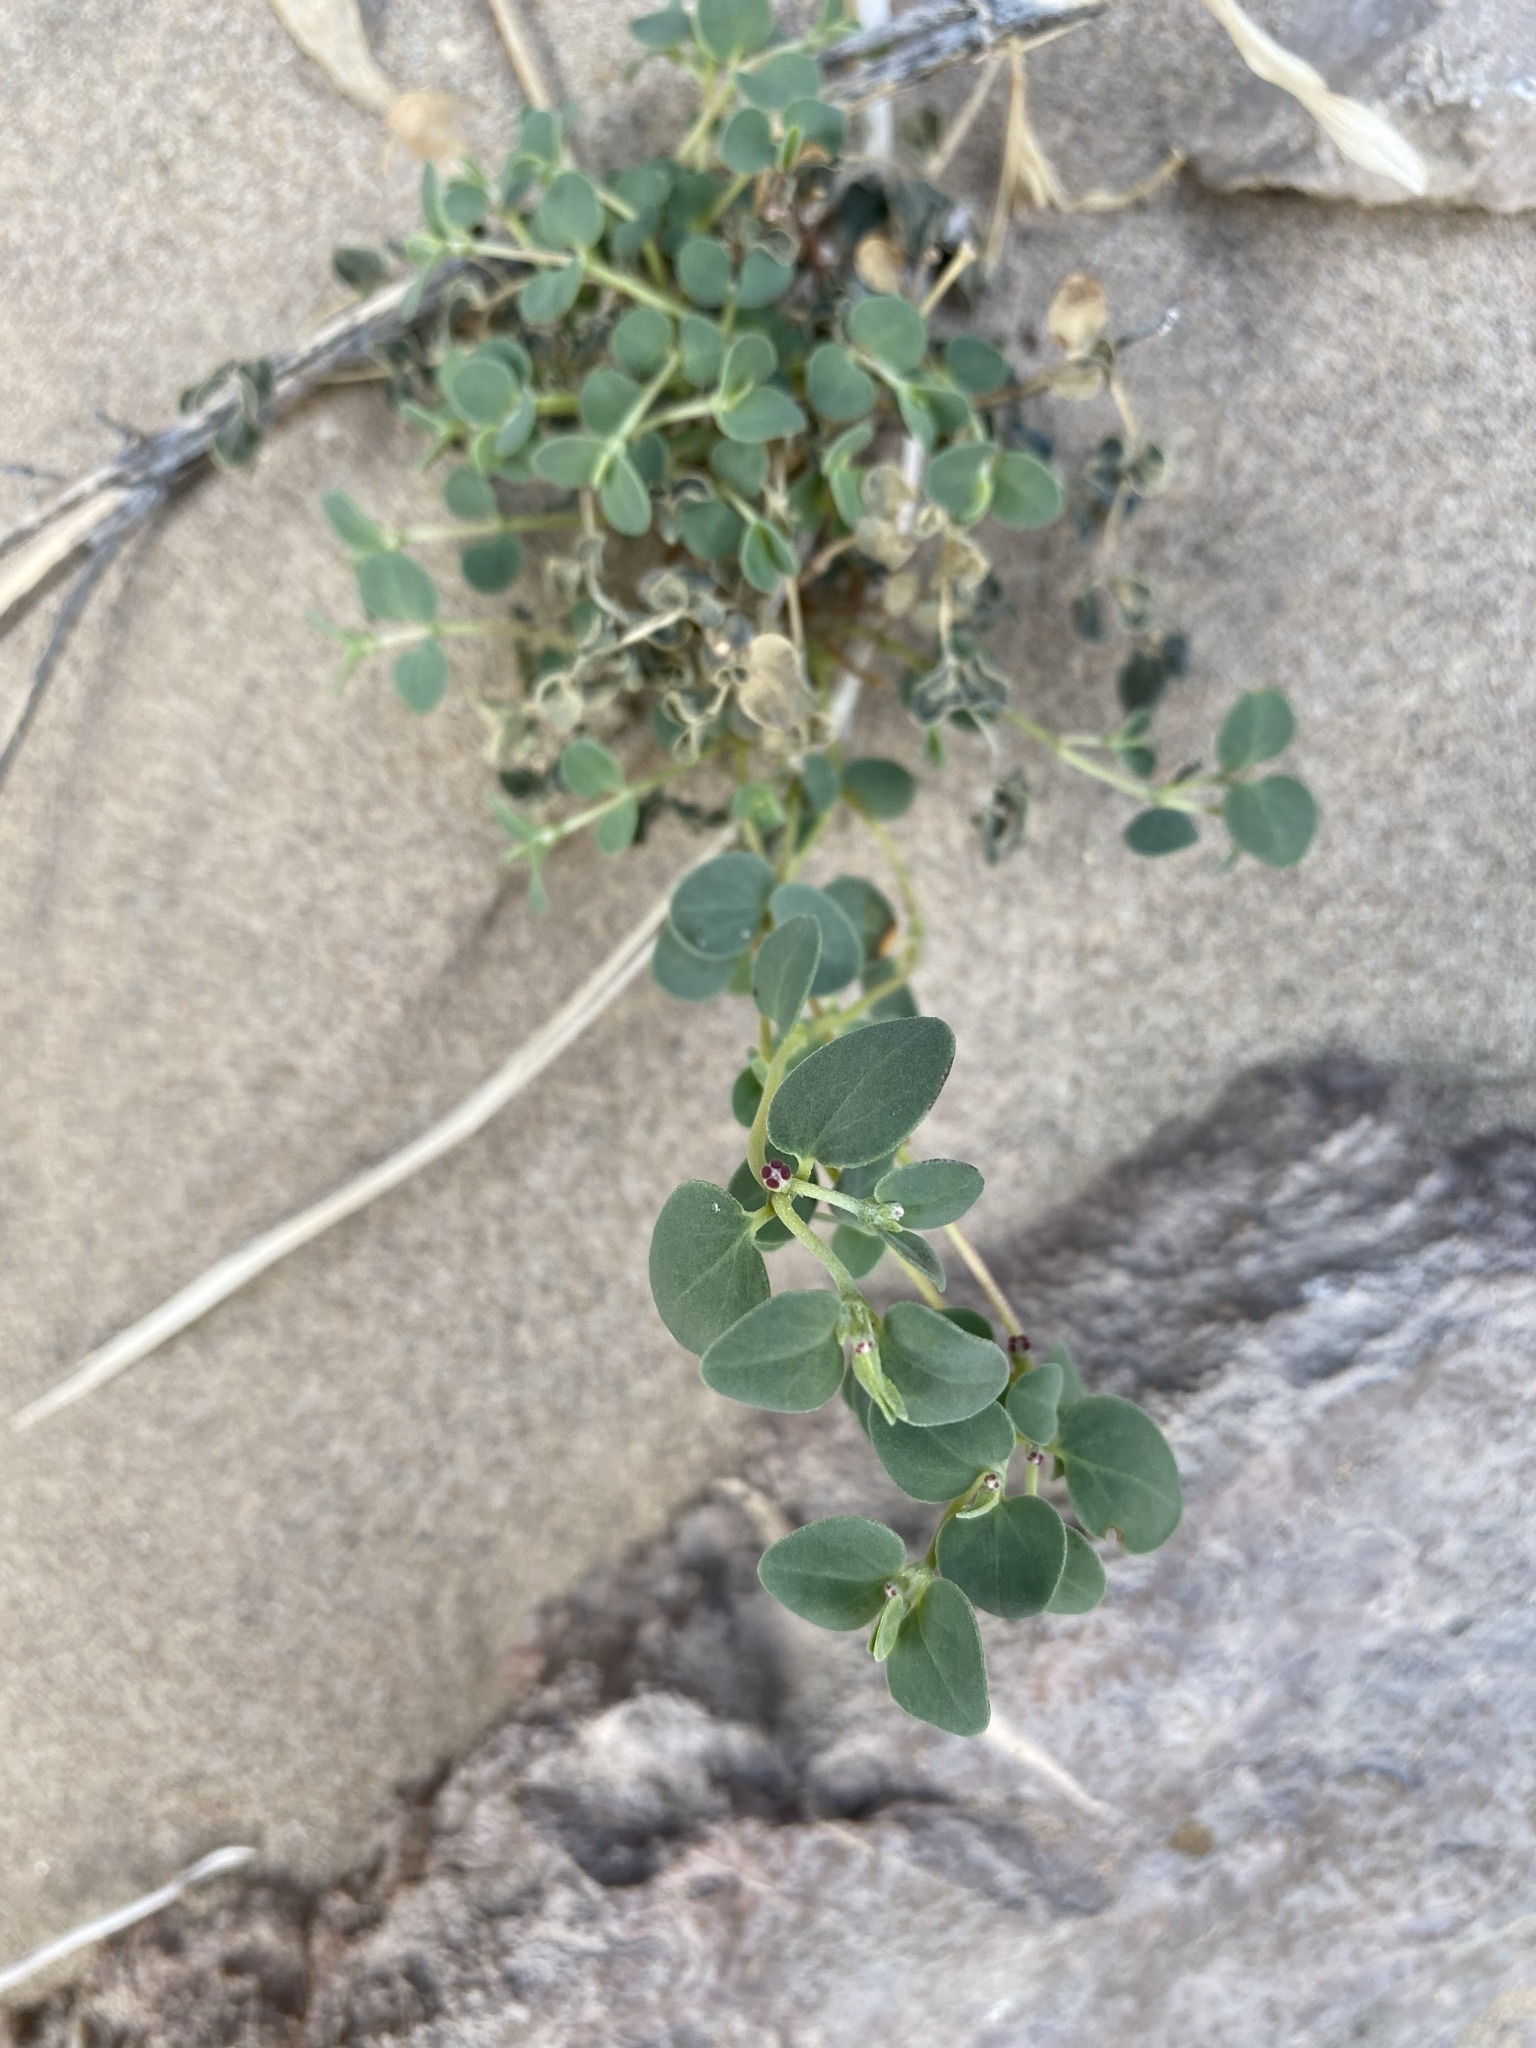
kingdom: Plantae
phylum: Tracheophyta
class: Magnoliopsida
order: Malpighiales
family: Euphorbiaceae
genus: Euphorbia
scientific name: Euphorbia cinerascens
